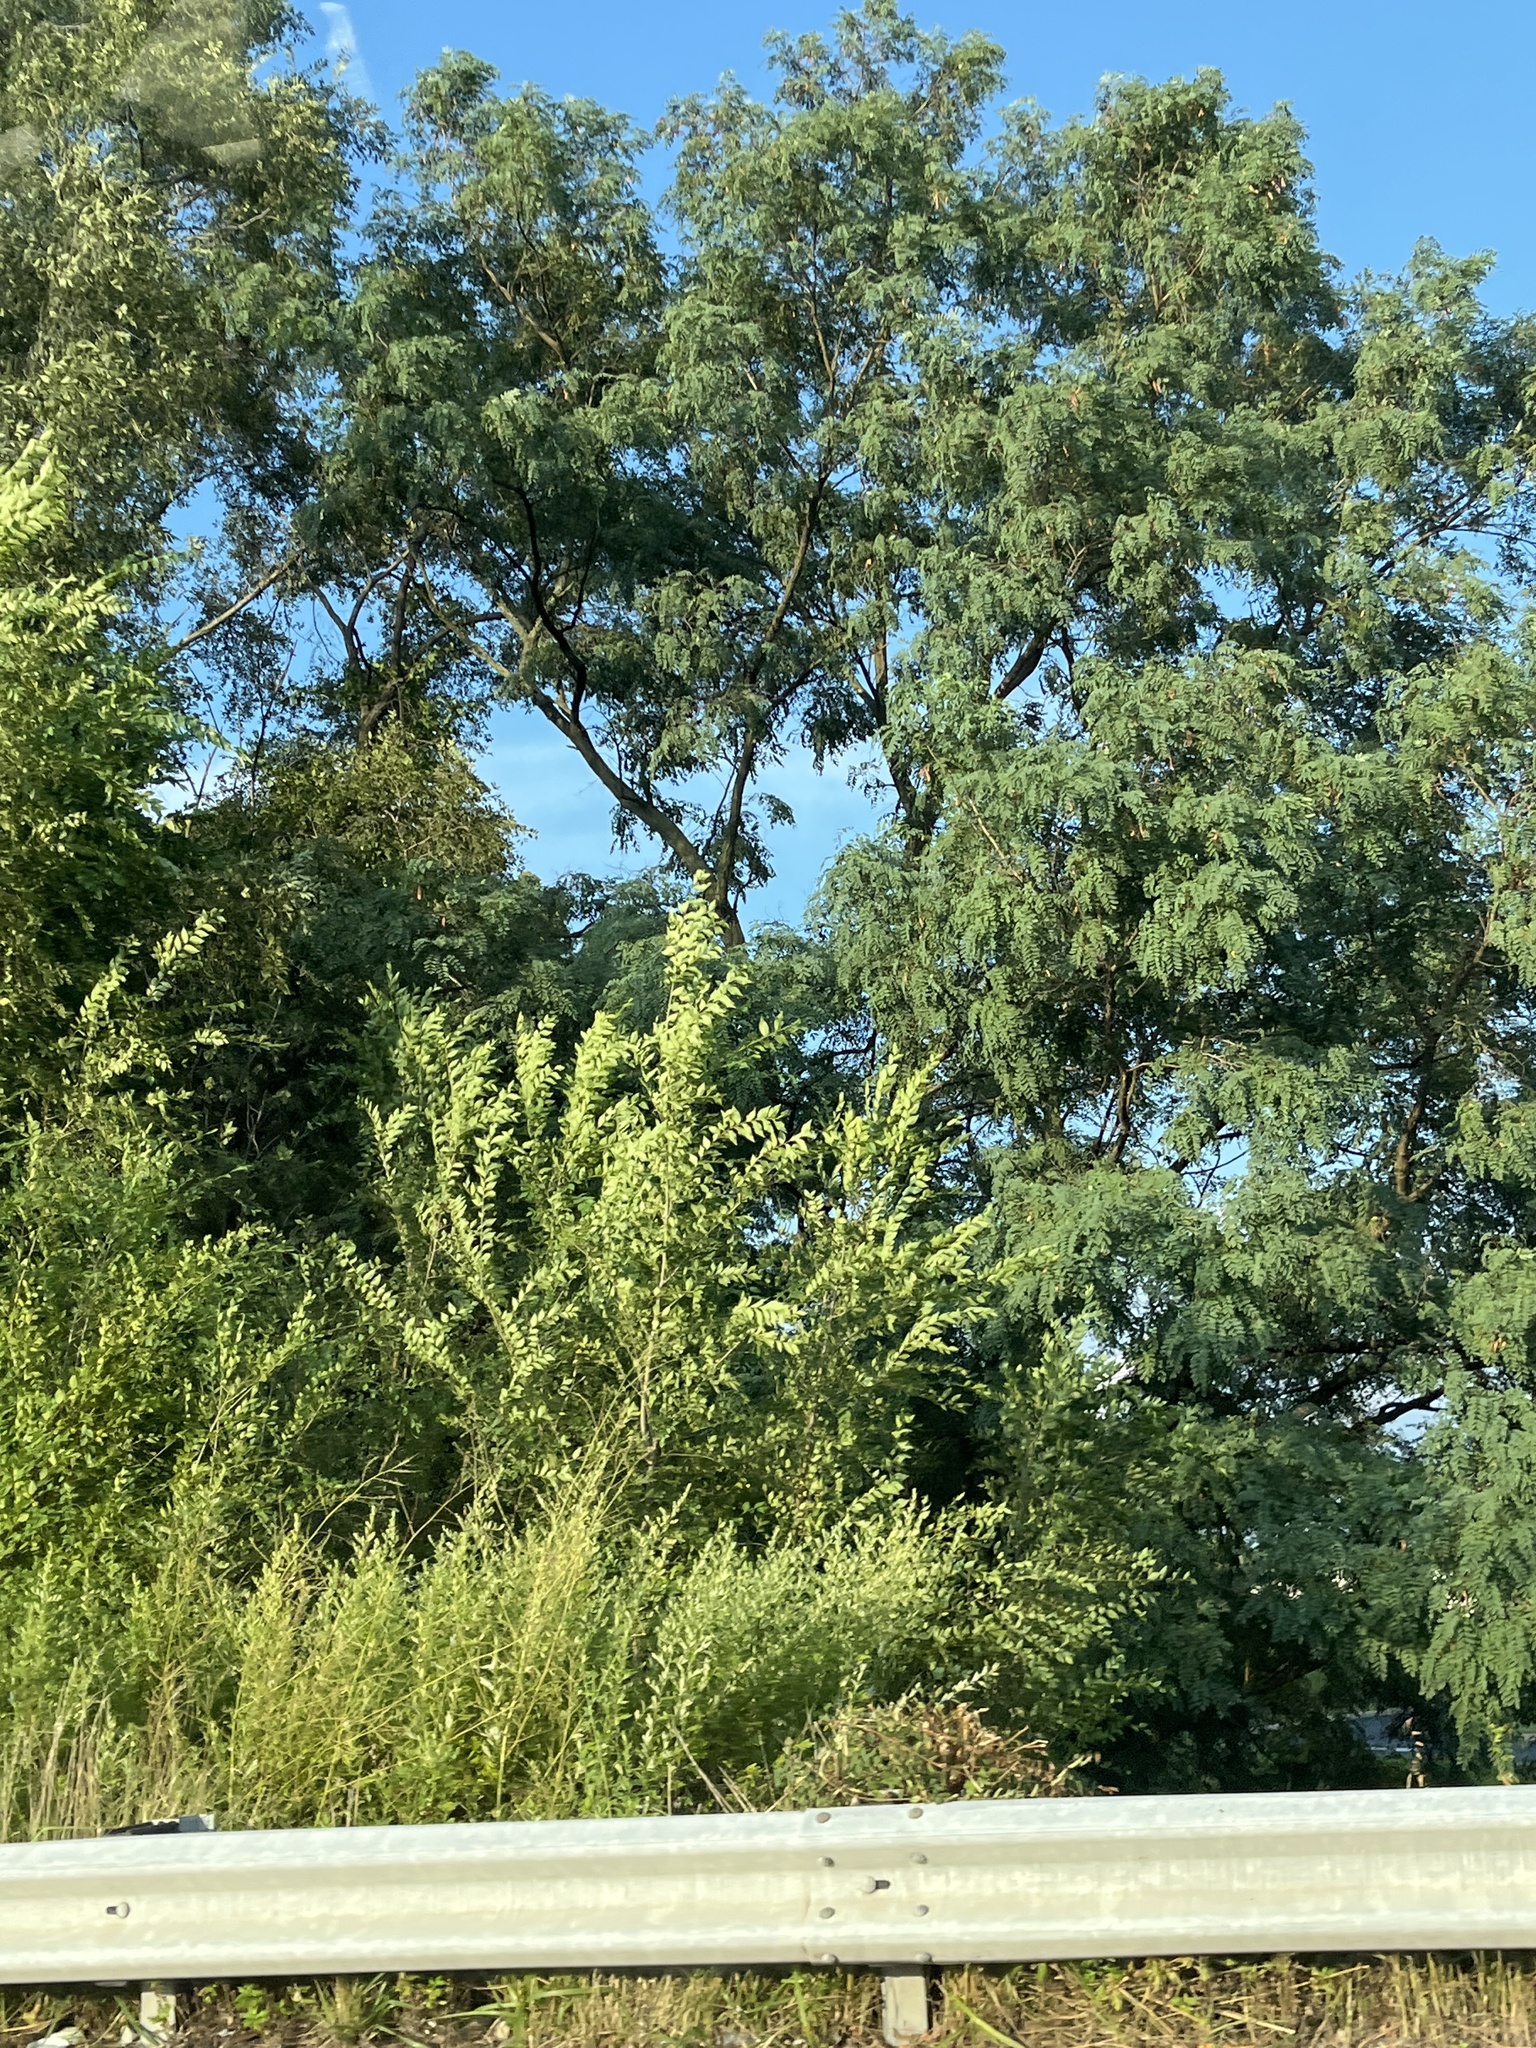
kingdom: Plantae
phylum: Tracheophyta
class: Magnoliopsida
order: Fabales
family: Fabaceae
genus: Gleditsia
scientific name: Gleditsia triacanthos
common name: Common honeylocust
